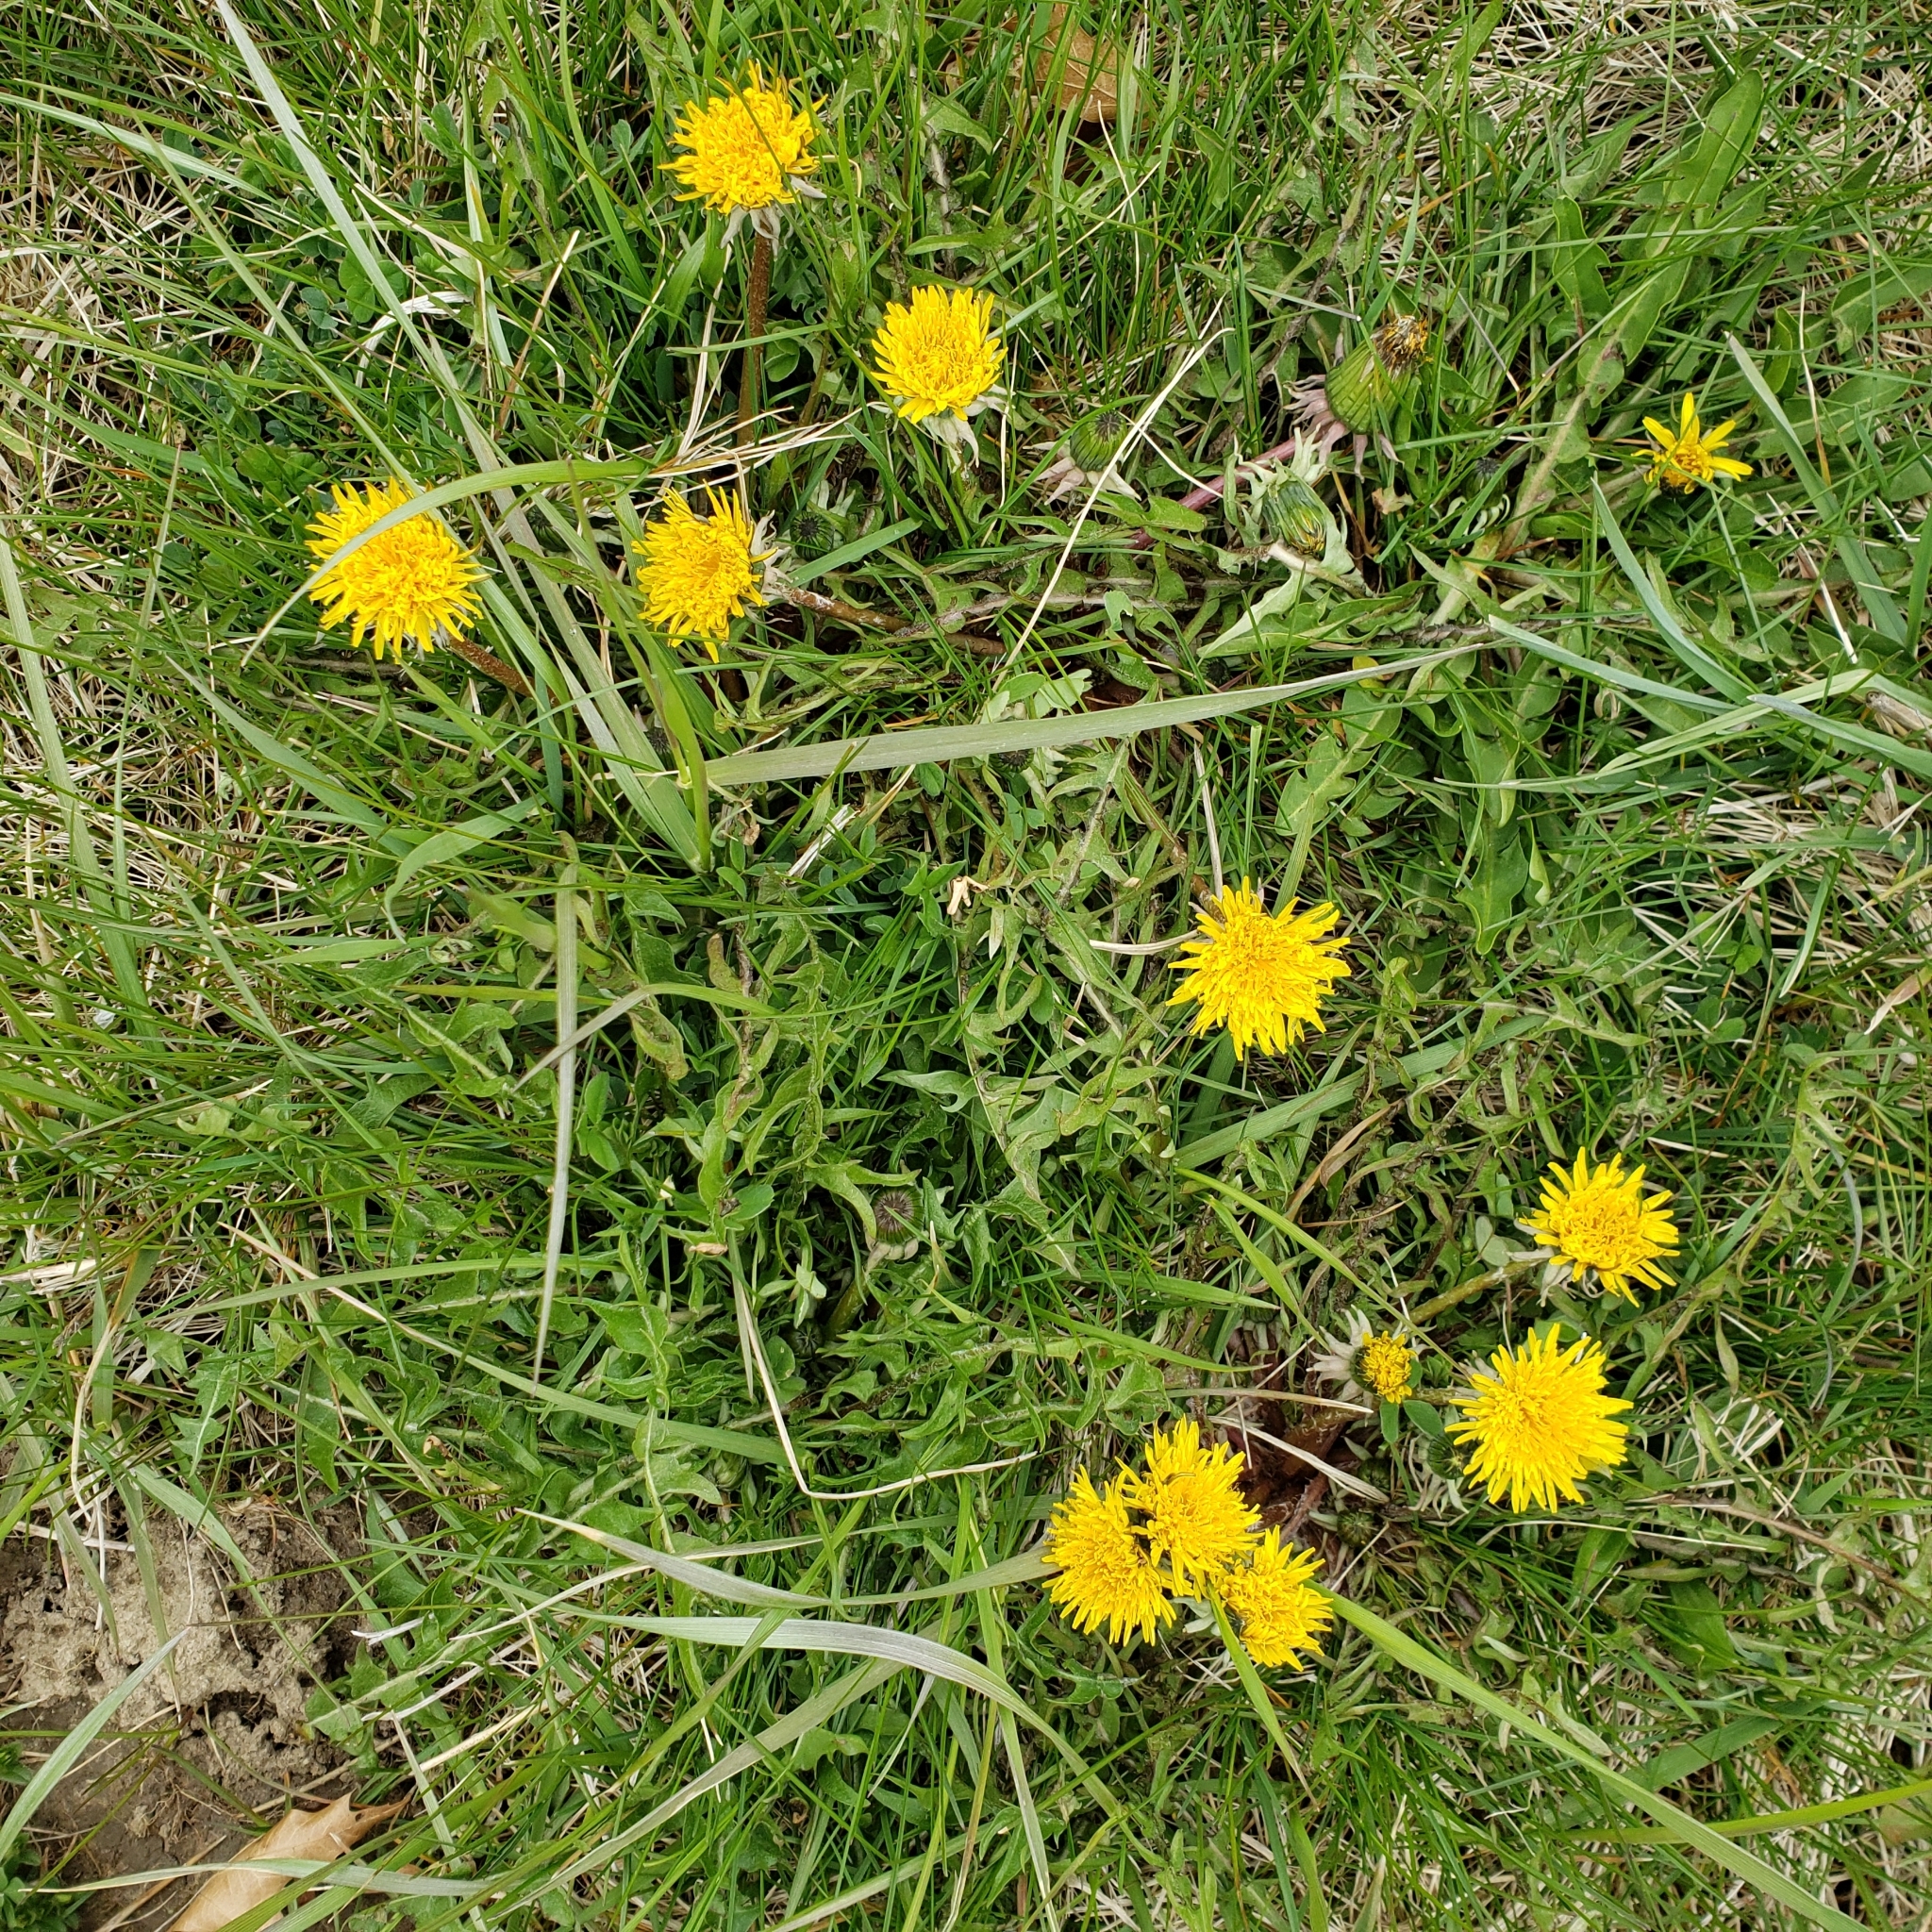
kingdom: Plantae
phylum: Tracheophyta
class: Magnoliopsida
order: Asterales
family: Asteraceae
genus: Taraxacum
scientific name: Taraxacum officinale
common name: Common dandelion
